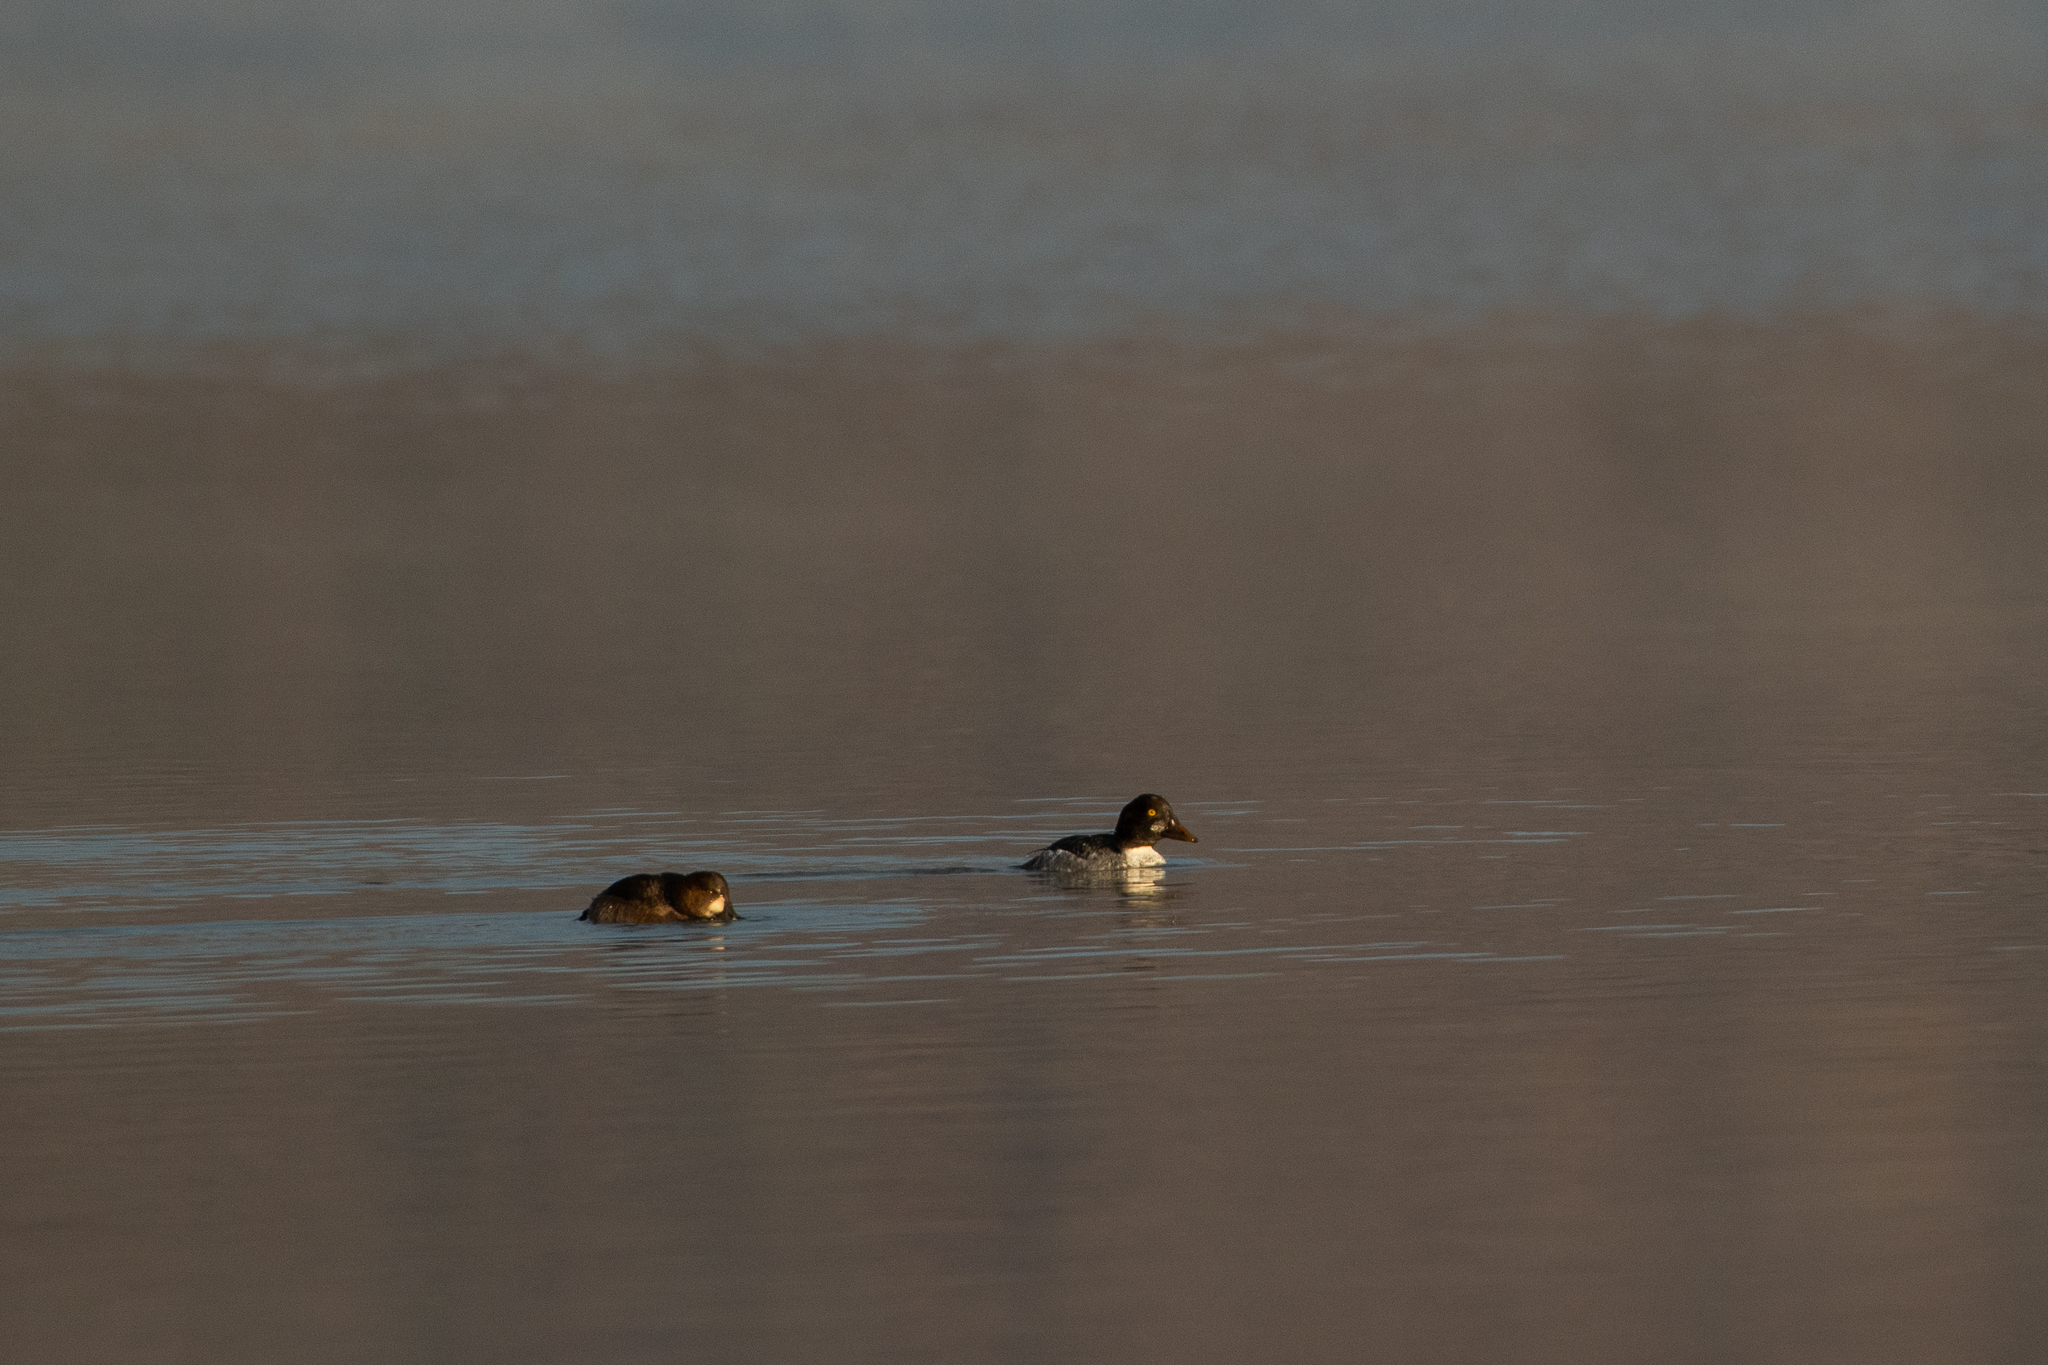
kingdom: Animalia
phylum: Chordata
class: Aves
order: Anseriformes
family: Anatidae
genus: Bucephala
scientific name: Bucephala clangula
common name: Common goldeneye
